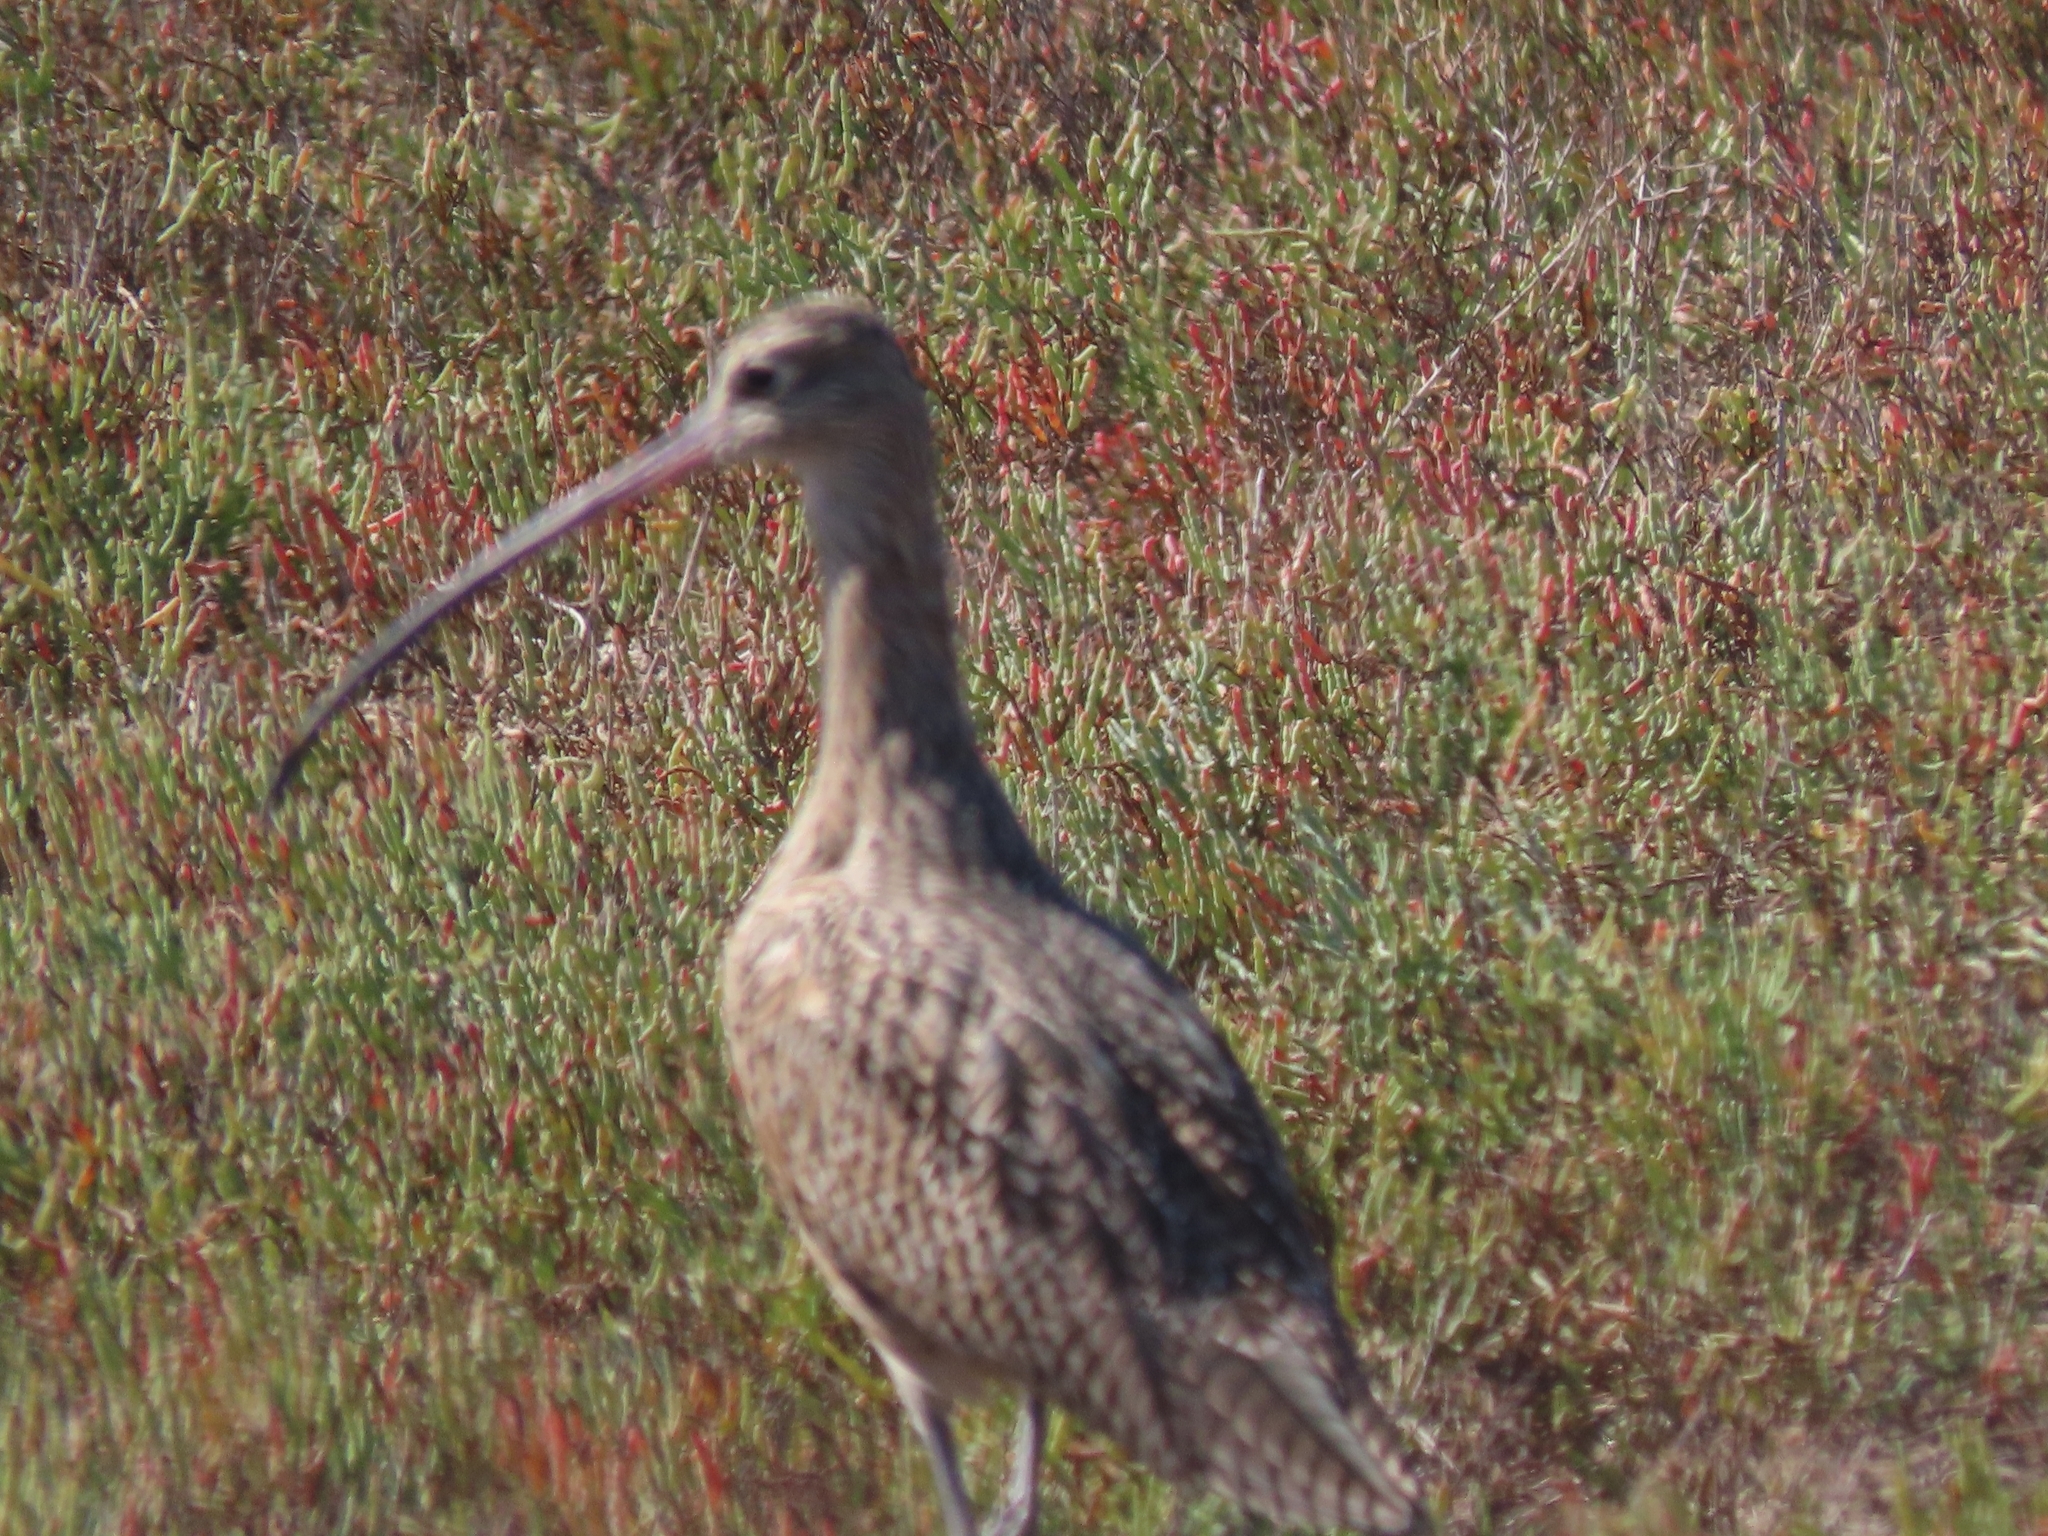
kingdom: Animalia
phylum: Chordata
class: Aves
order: Charadriiformes
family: Scolopacidae
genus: Numenius
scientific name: Numenius americanus
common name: Long-billed curlew
